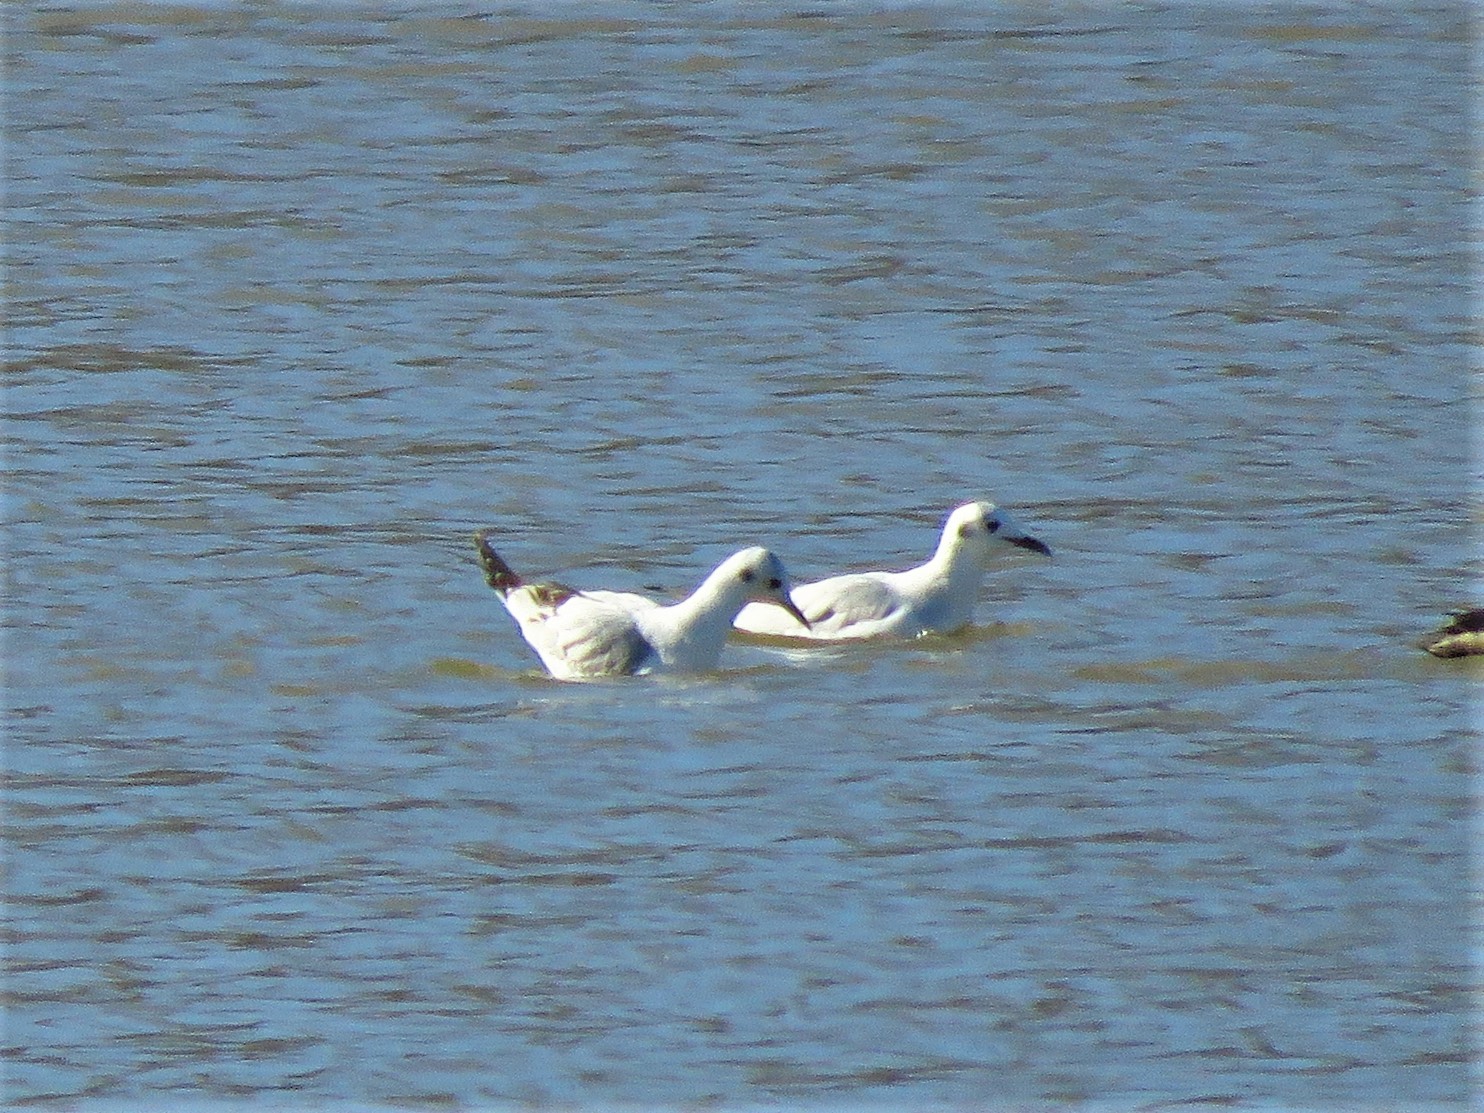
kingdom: Animalia
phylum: Chordata
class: Aves
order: Charadriiformes
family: Laridae
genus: Chroicocephalus
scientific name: Chroicocephalus philadelphia
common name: Bonaparte's gull
